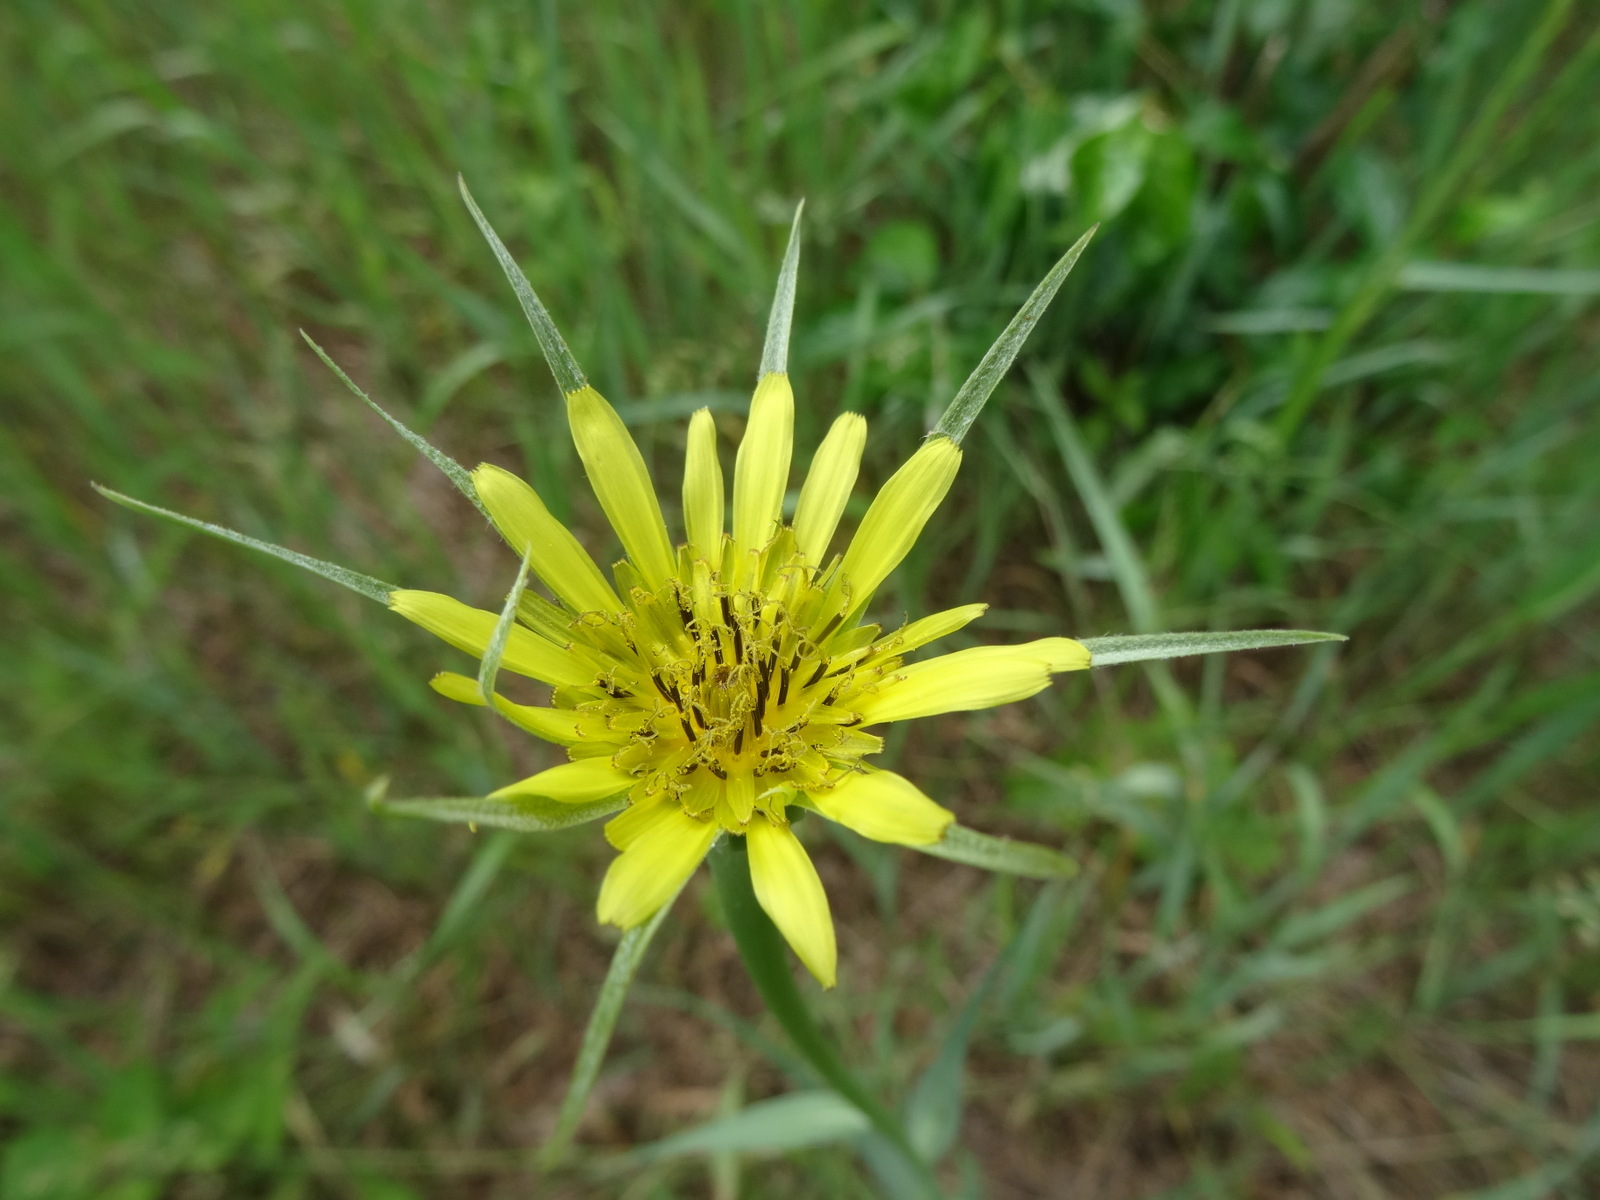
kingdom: Plantae
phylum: Tracheophyta
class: Magnoliopsida
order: Asterales
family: Asteraceae
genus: Tragopogon
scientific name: Tragopogon dubius
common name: Yellow salsify
